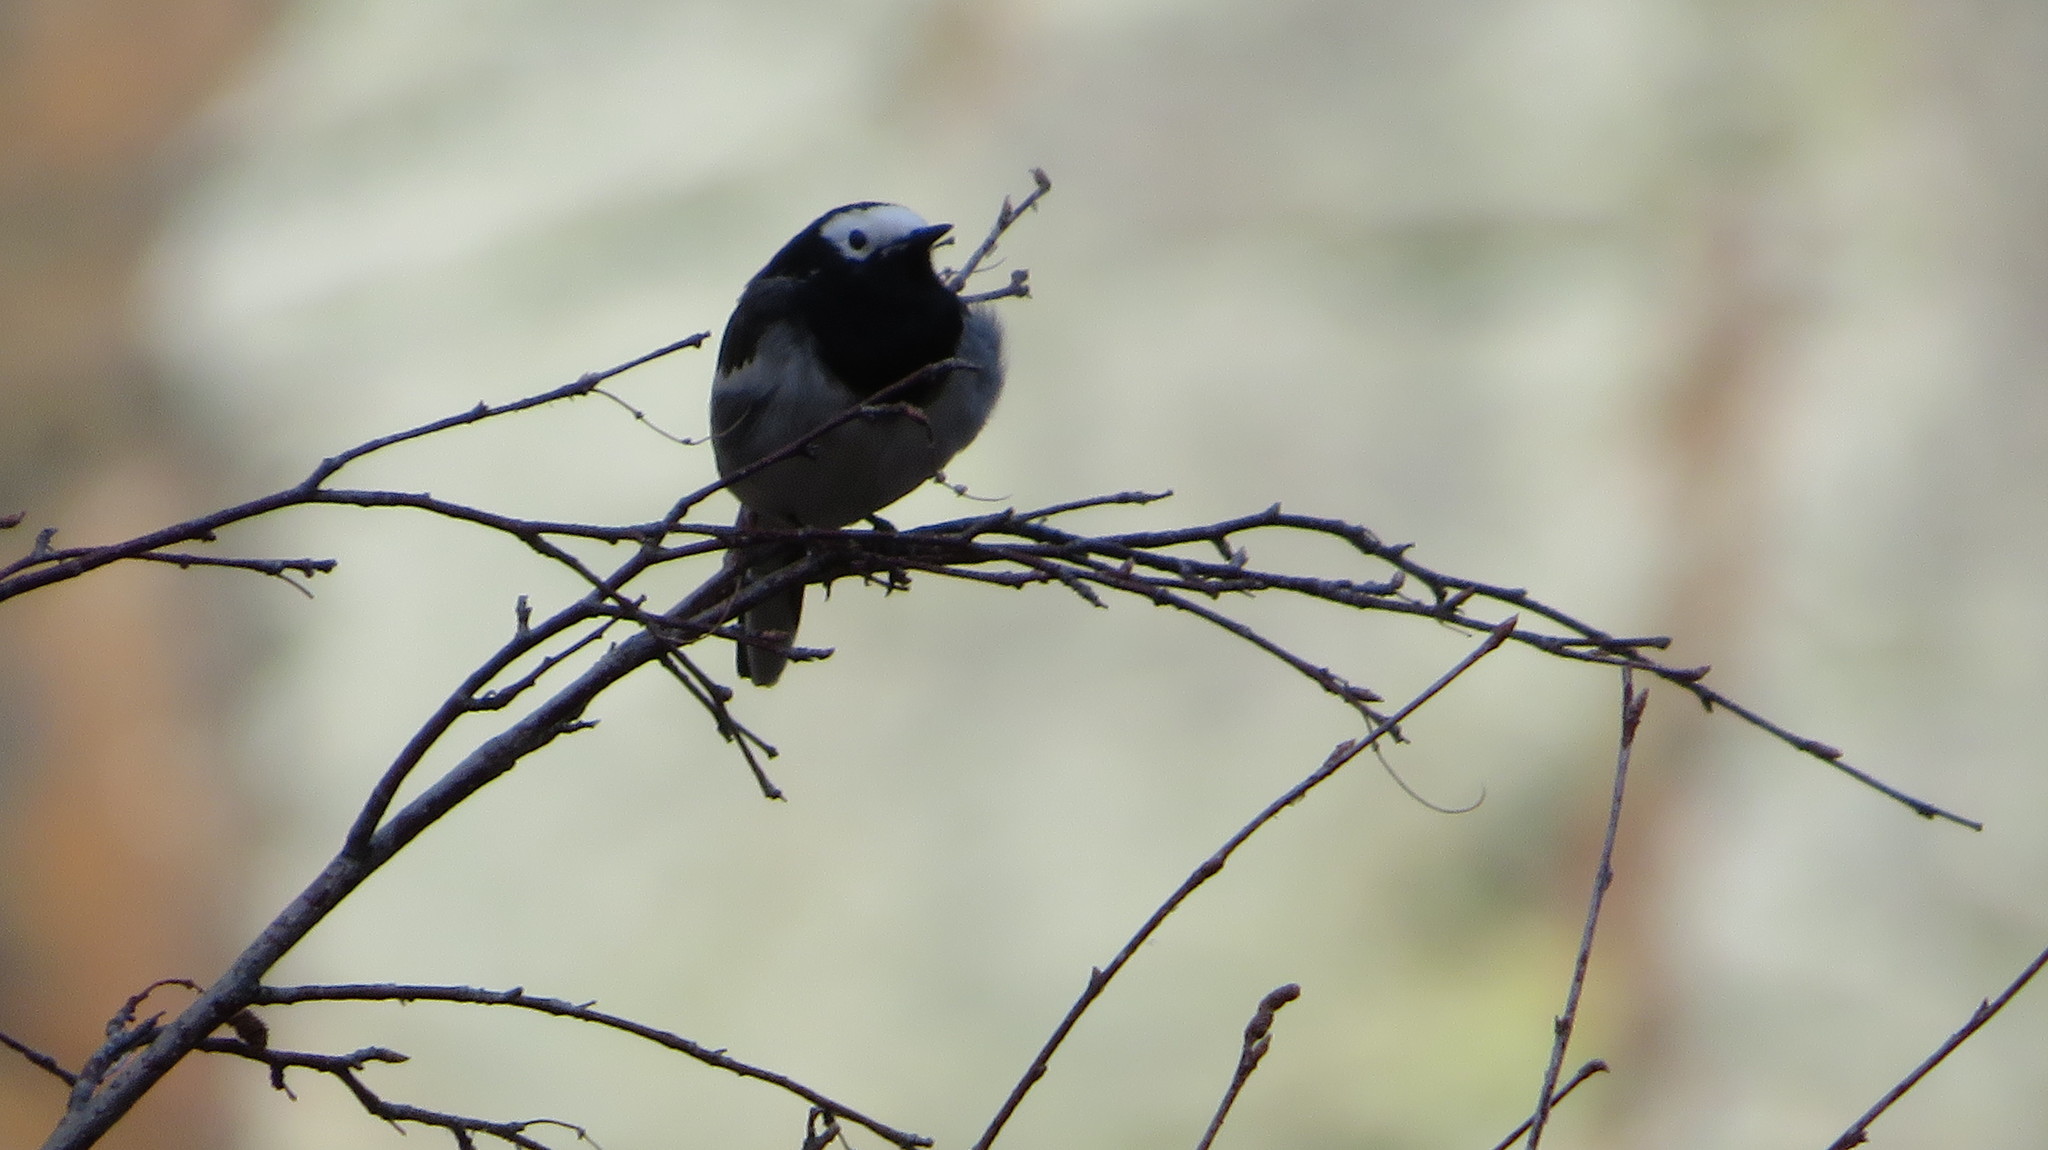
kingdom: Animalia
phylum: Chordata
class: Aves
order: Passeriformes
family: Motacillidae
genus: Motacilla
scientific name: Motacilla alba
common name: White wagtail
